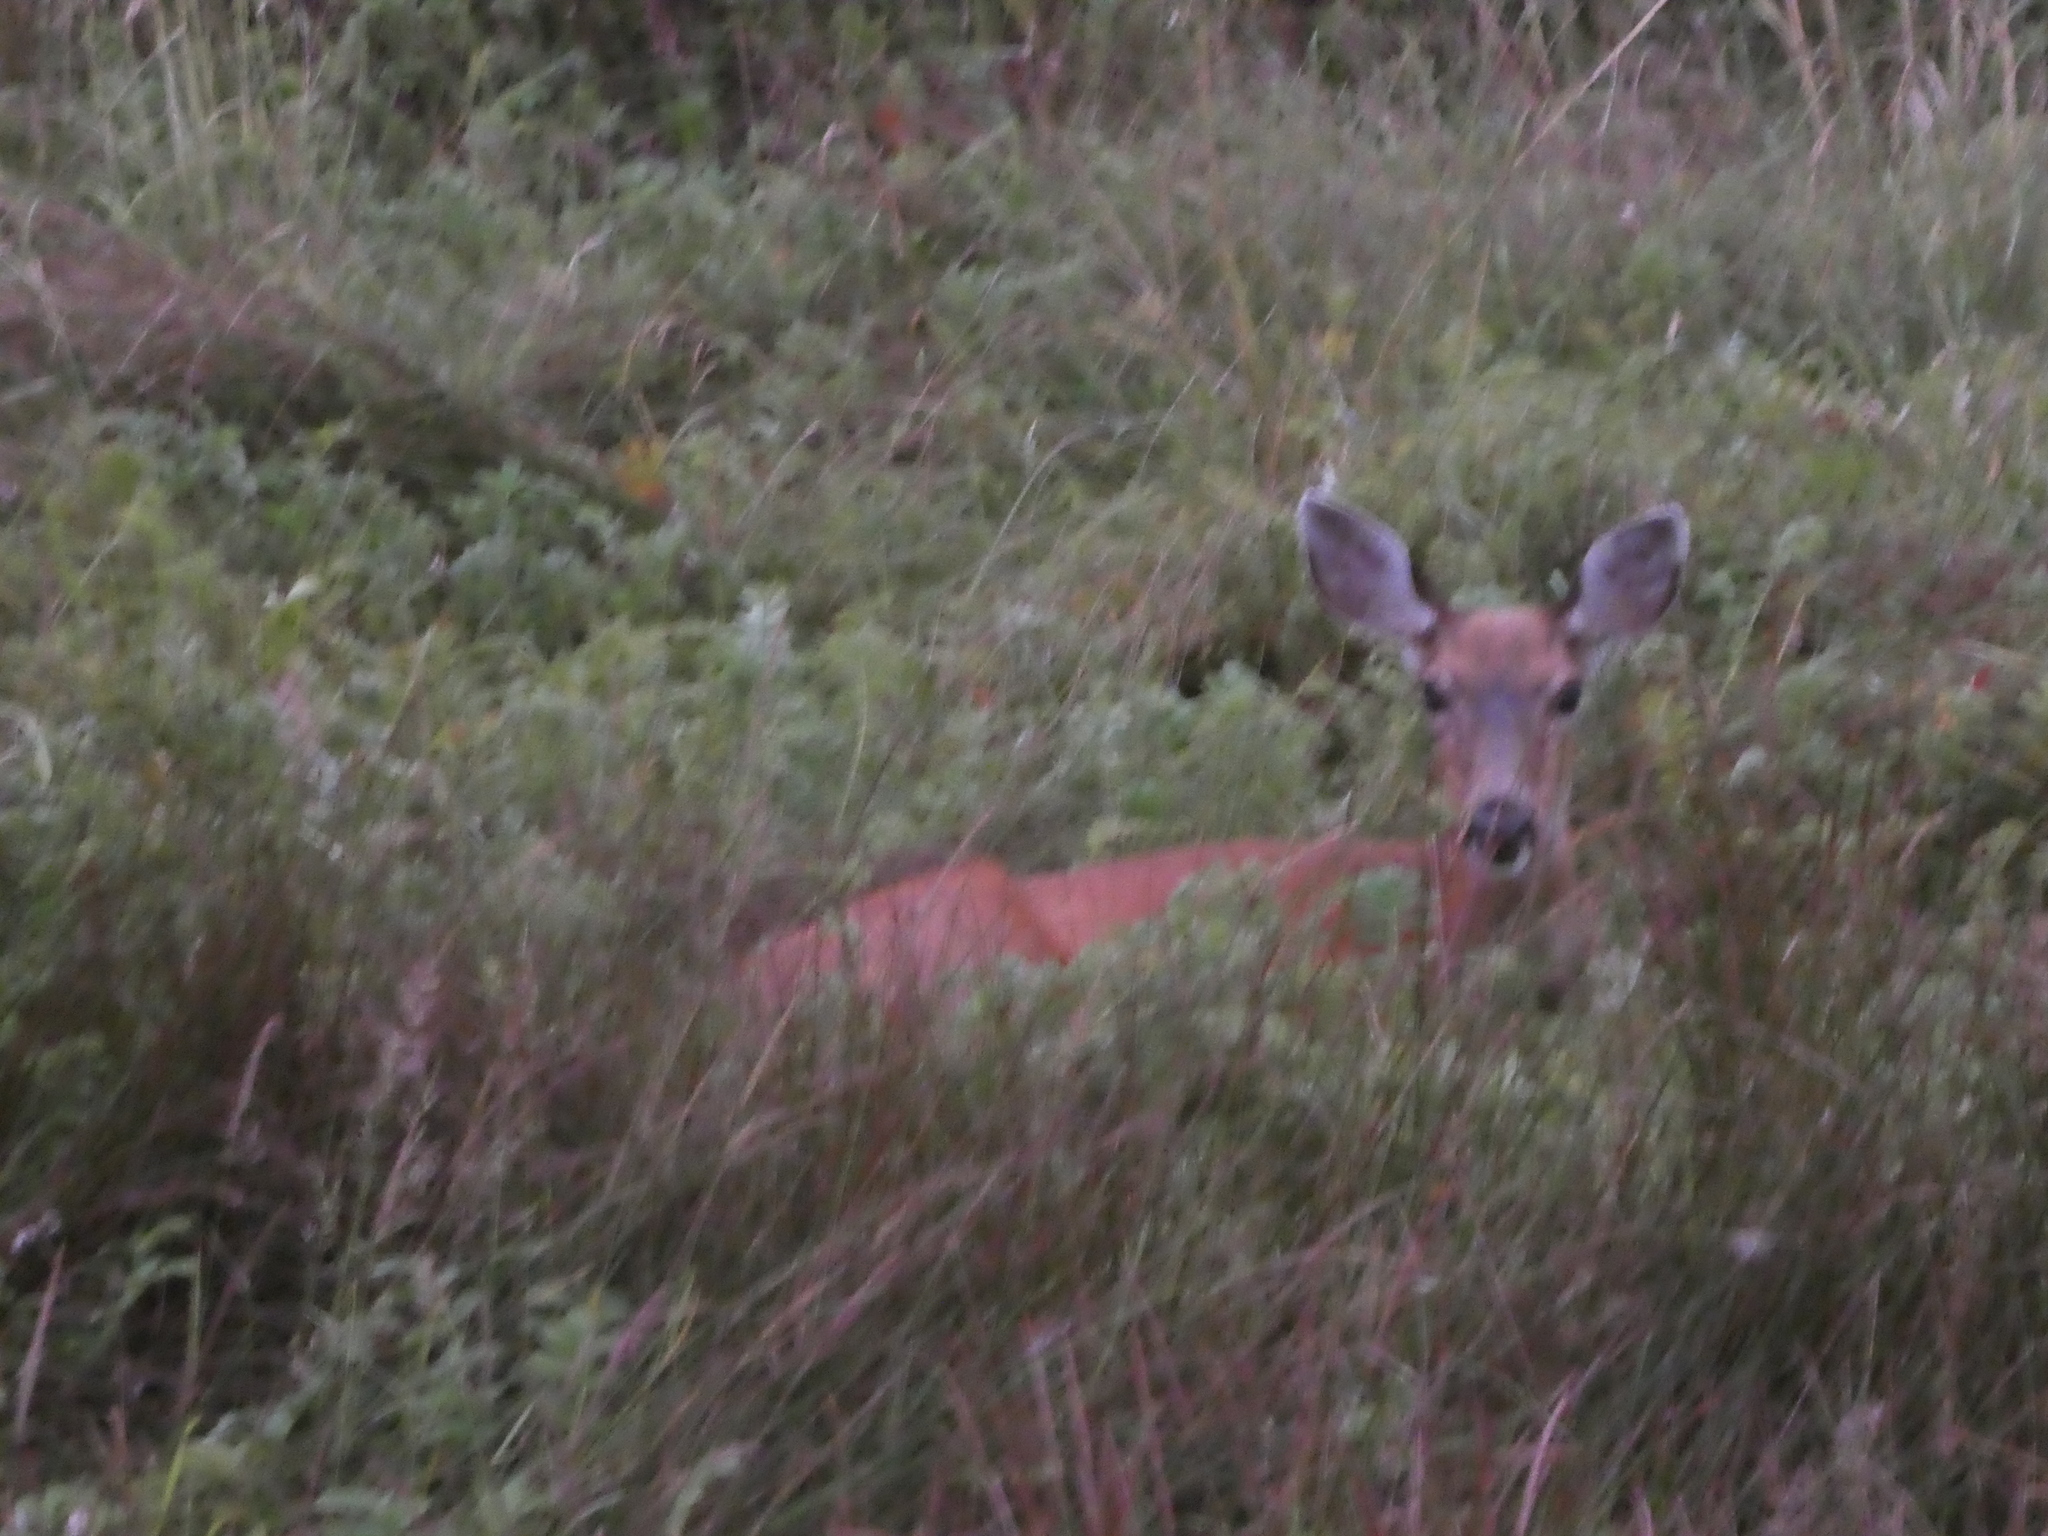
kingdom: Animalia
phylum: Chordata
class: Mammalia
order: Artiodactyla
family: Cervidae
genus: Odocoileus
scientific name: Odocoileus hemionus
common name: Mule deer
